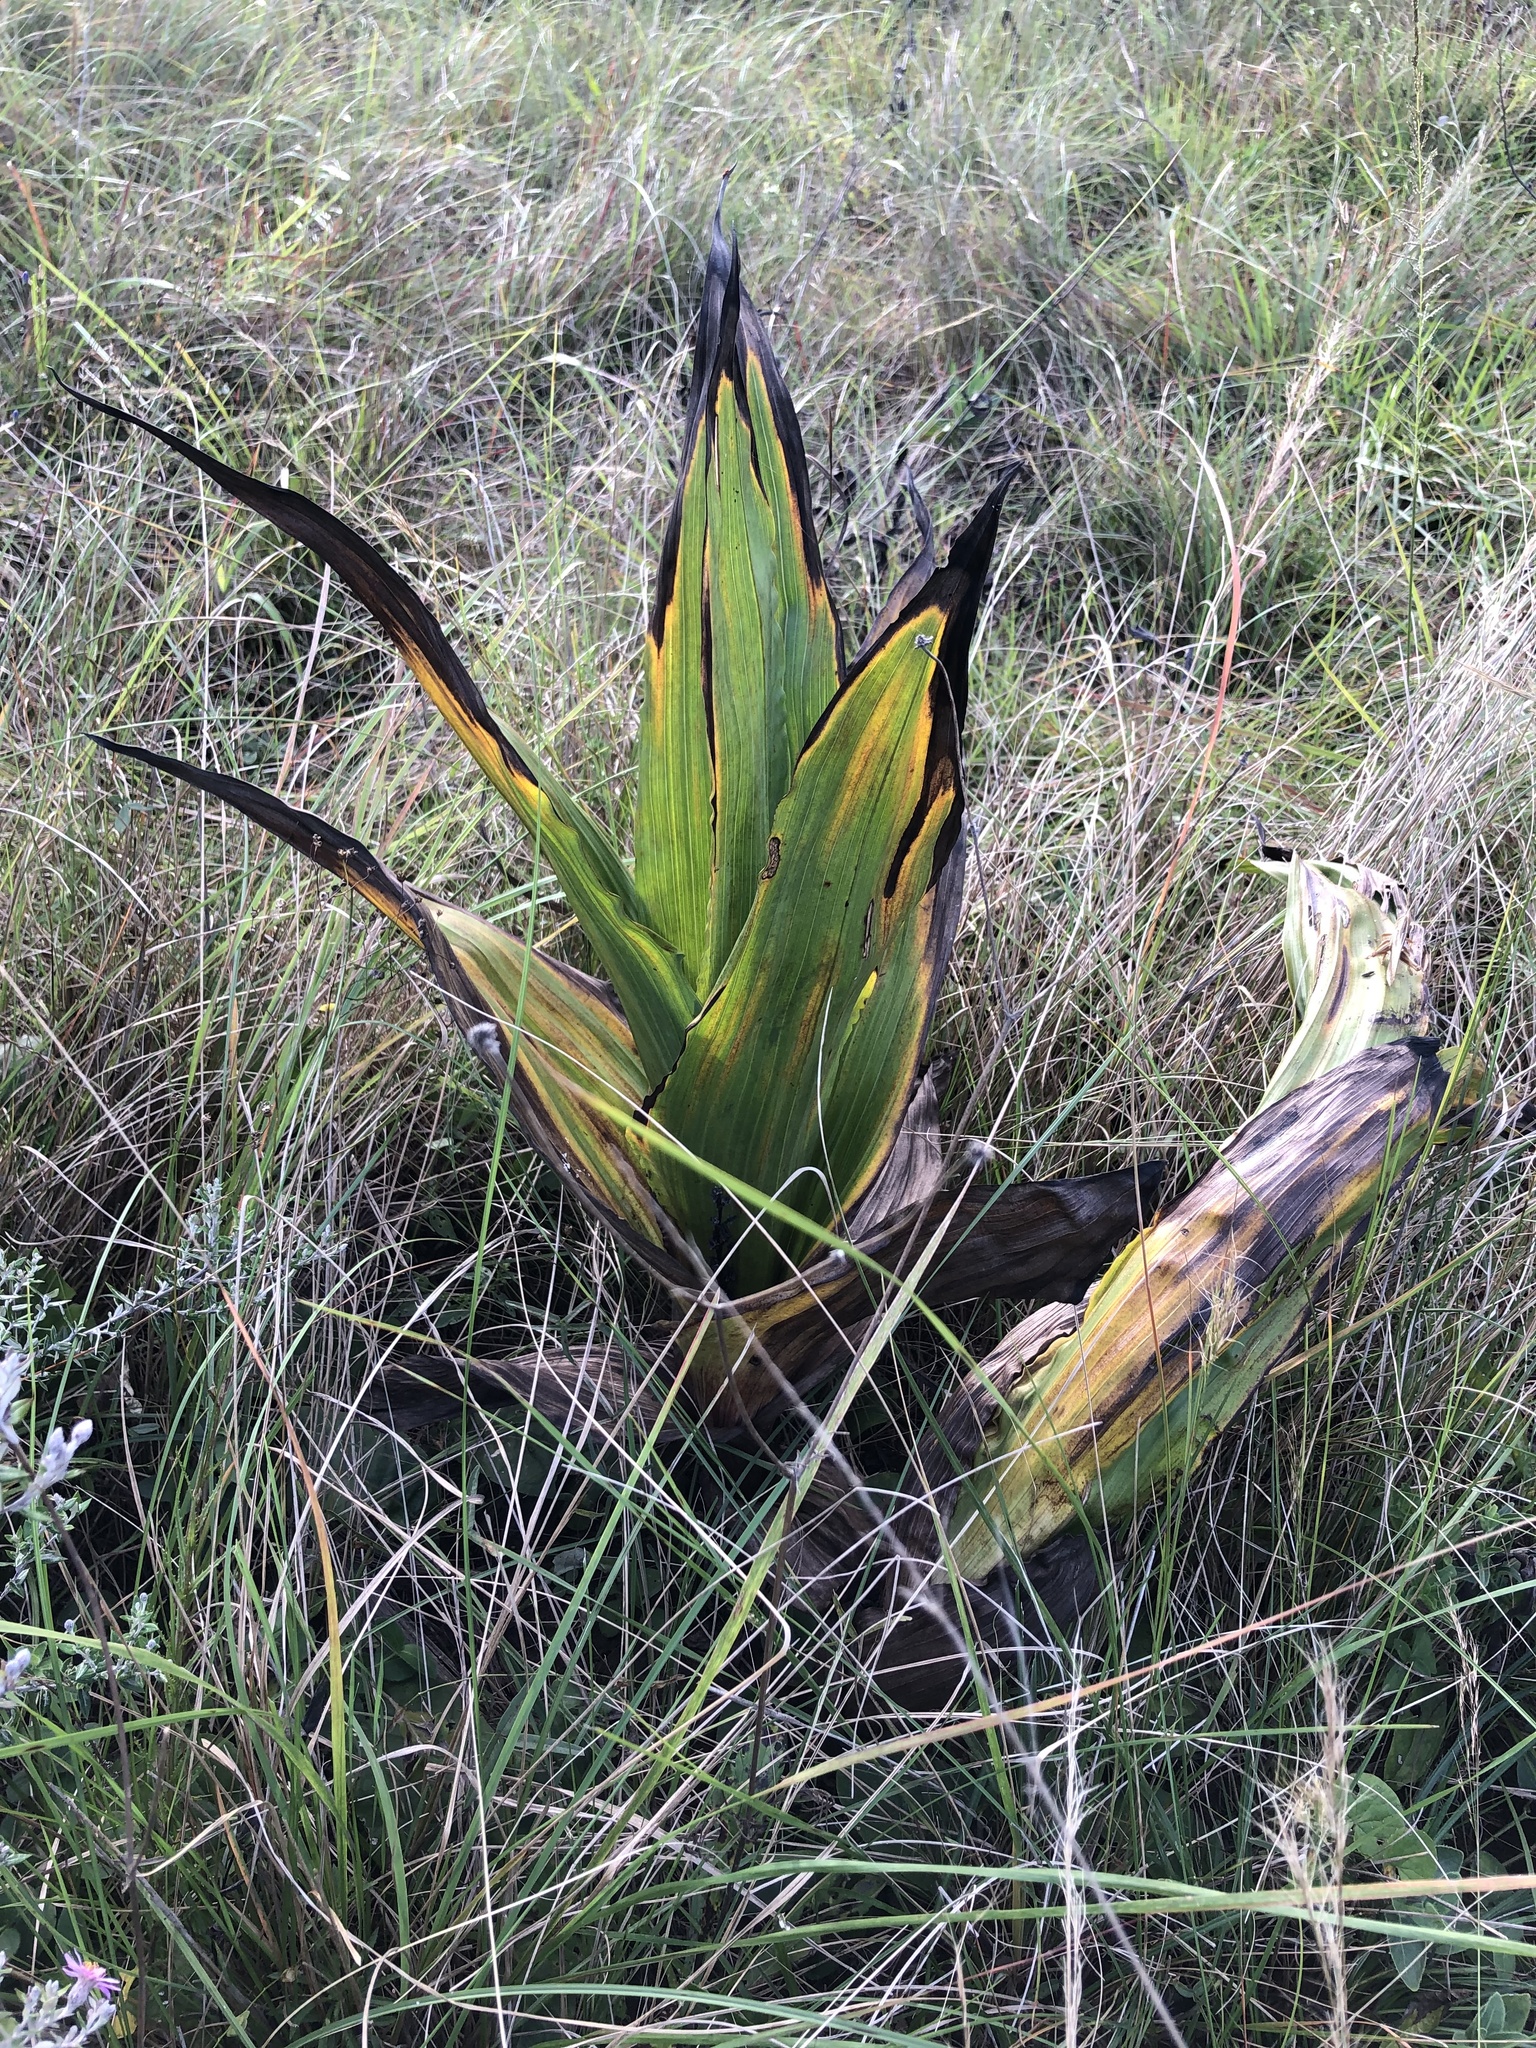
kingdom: Plantae
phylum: Tracheophyta
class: Liliopsida
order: Asparagales
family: Hypoxidaceae
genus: Hypoxis
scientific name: Hypoxis colchicifolia
